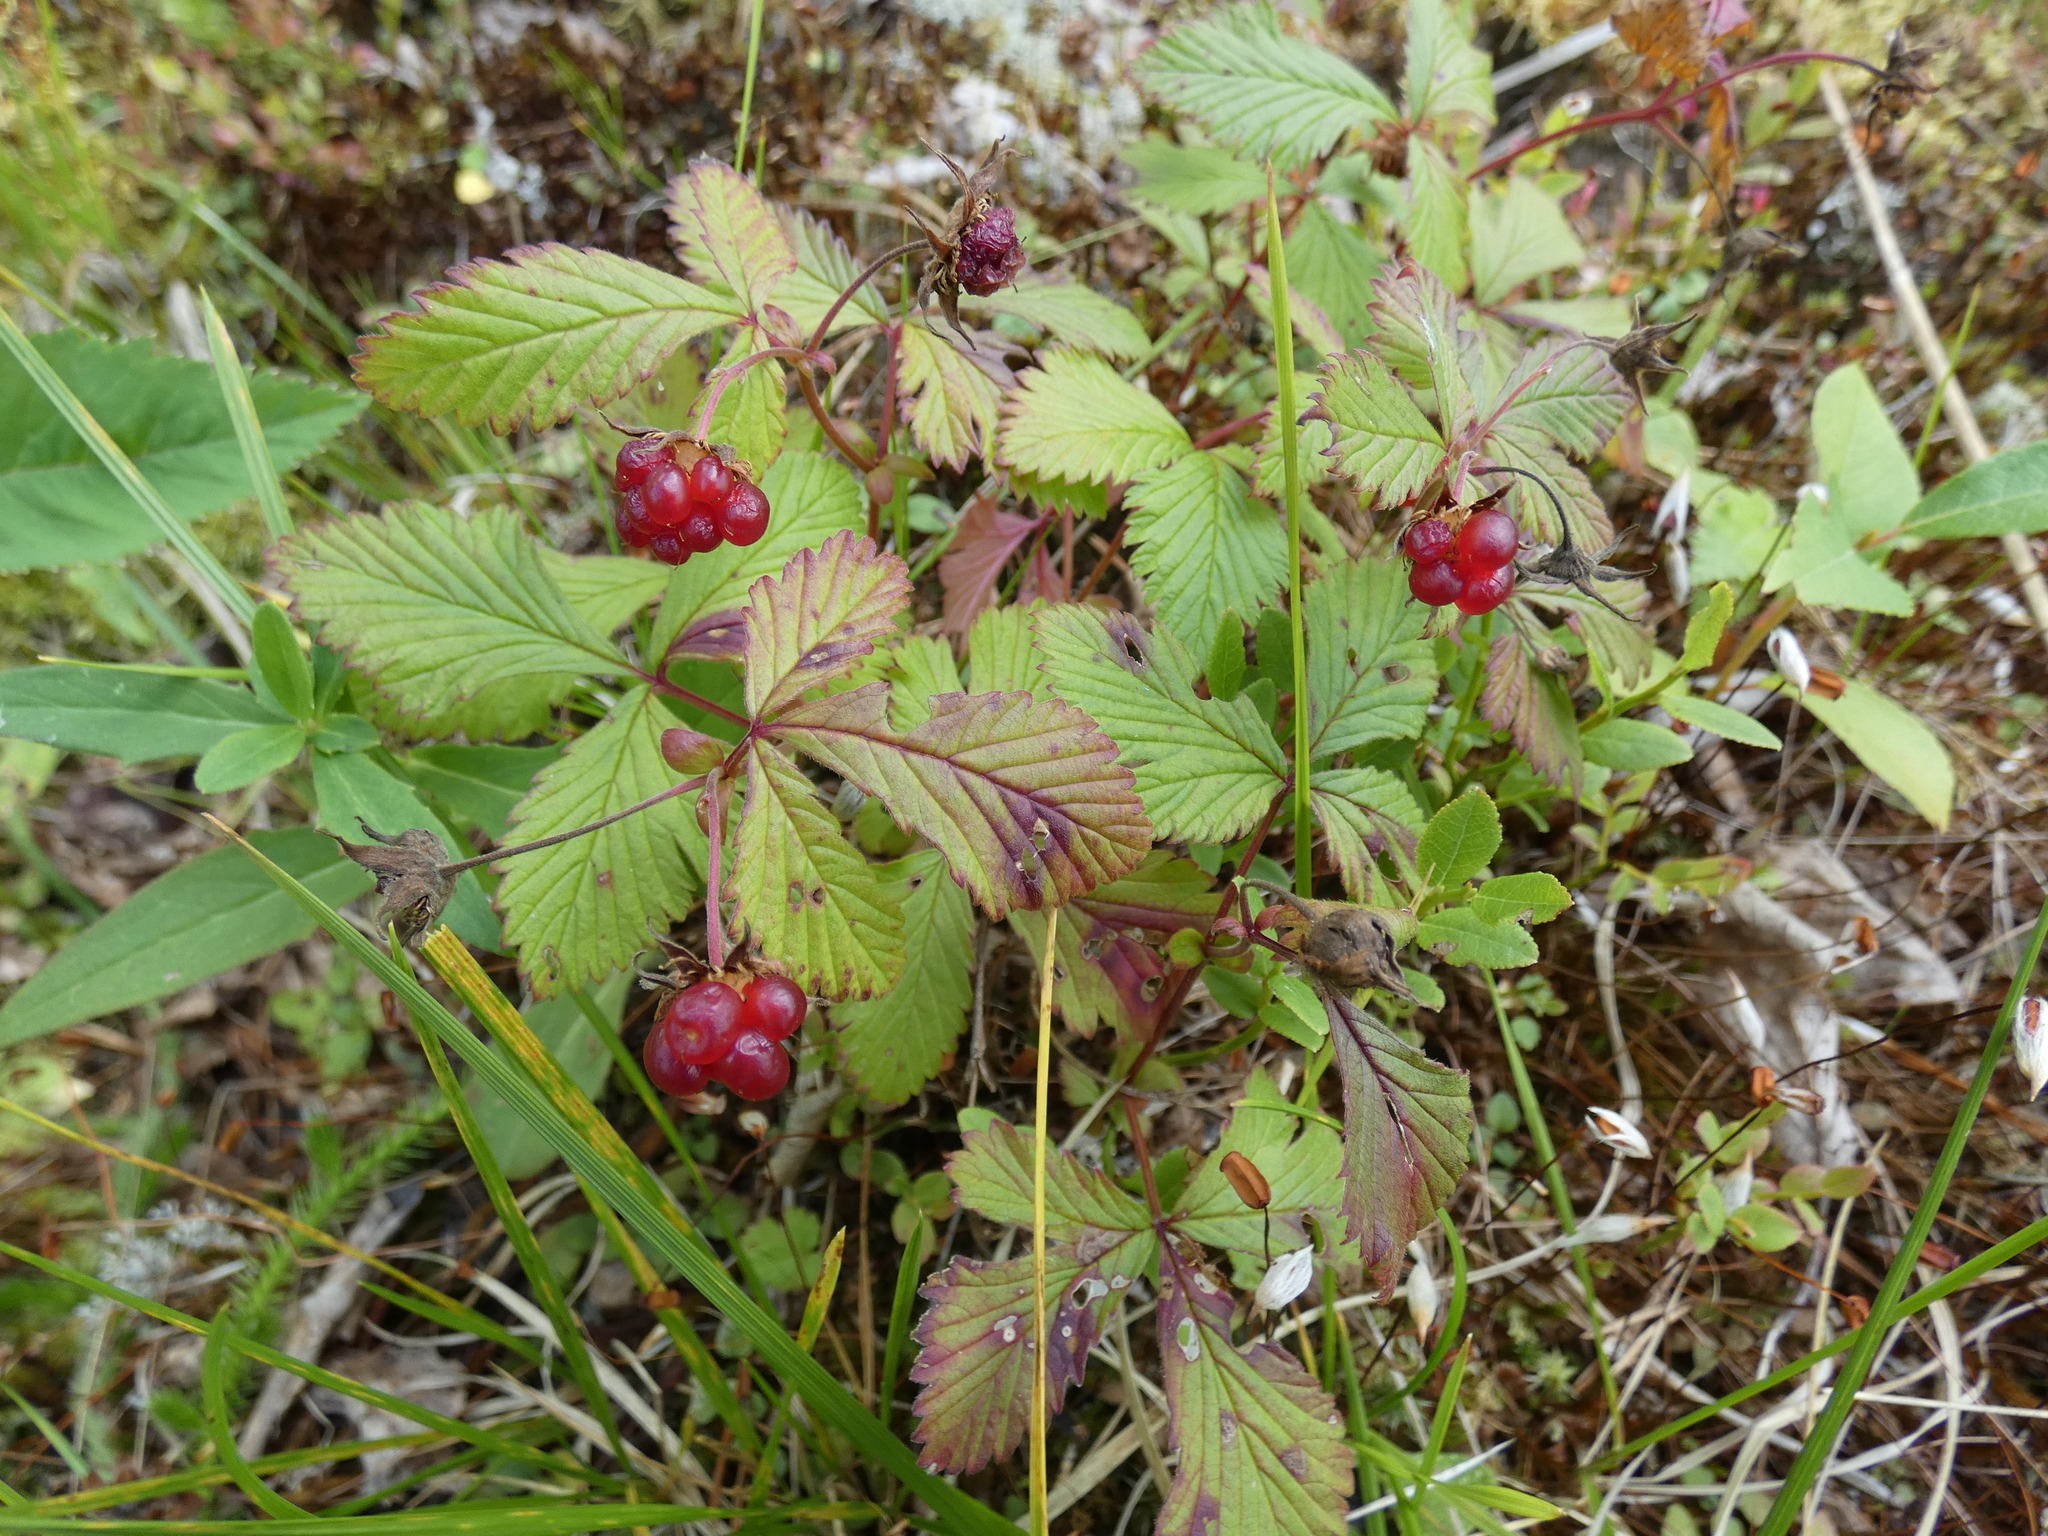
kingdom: Plantae
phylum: Tracheophyta
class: Magnoliopsida
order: Rosales
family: Rosaceae
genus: Rubus
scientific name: Rubus arcticus
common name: Arctic bramble
